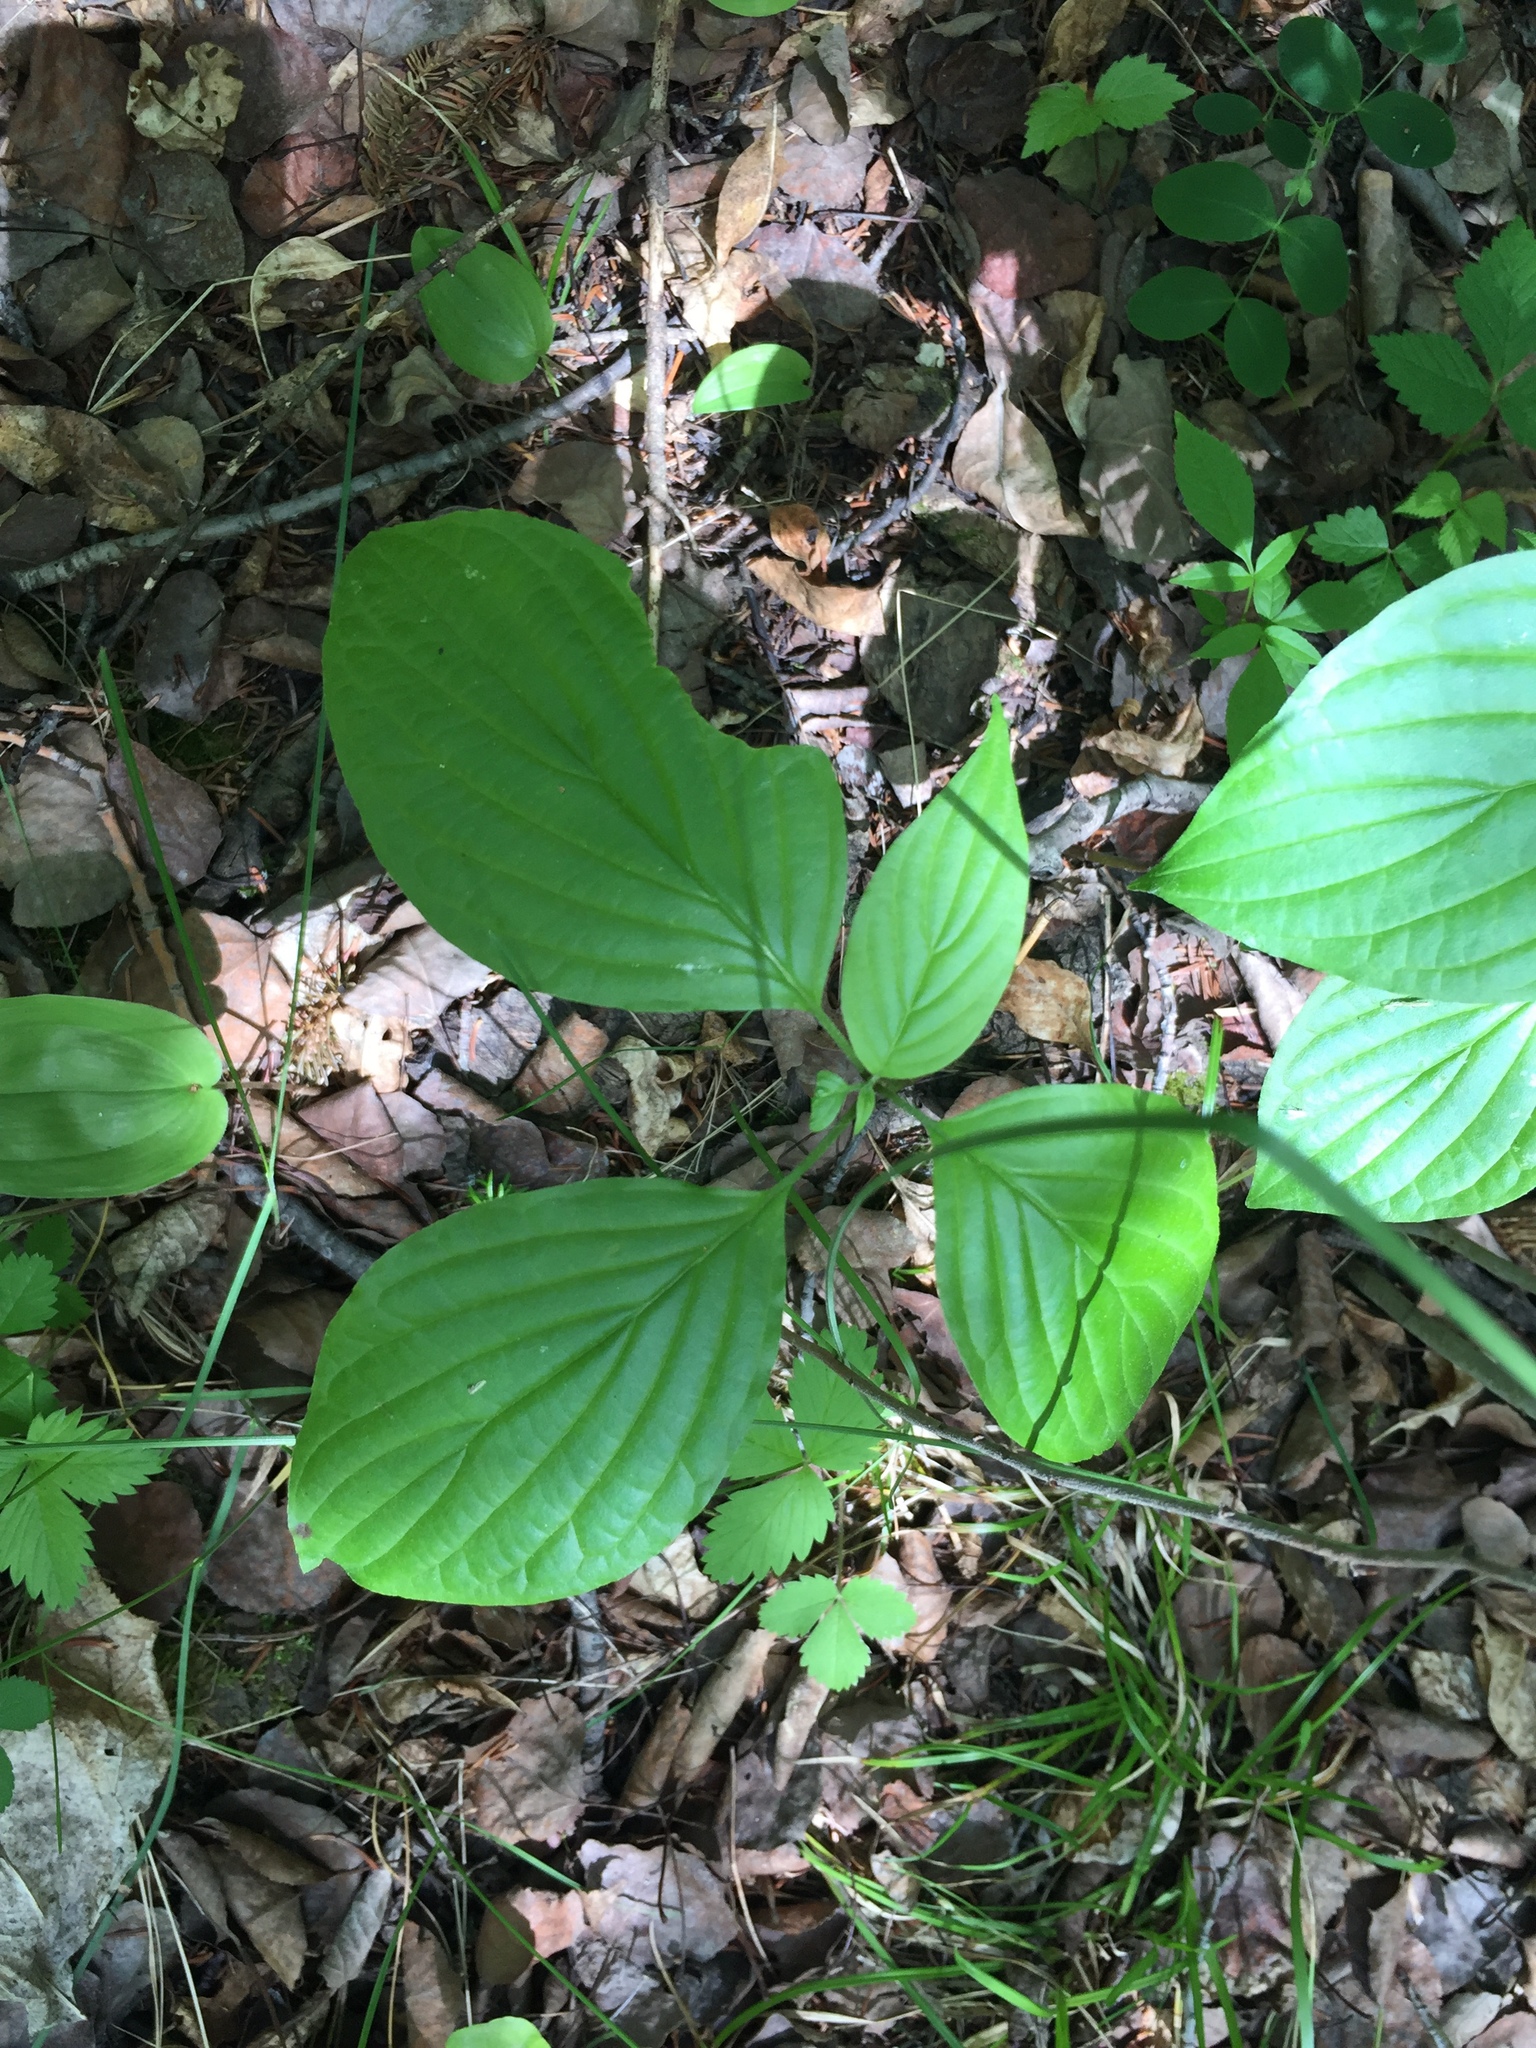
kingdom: Plantae
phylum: Tracheophyta
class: Magnoliopsida
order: Cornales
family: Cornaceae
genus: Cornus
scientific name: Cornus alternifolia
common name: Pagoda dogwood
